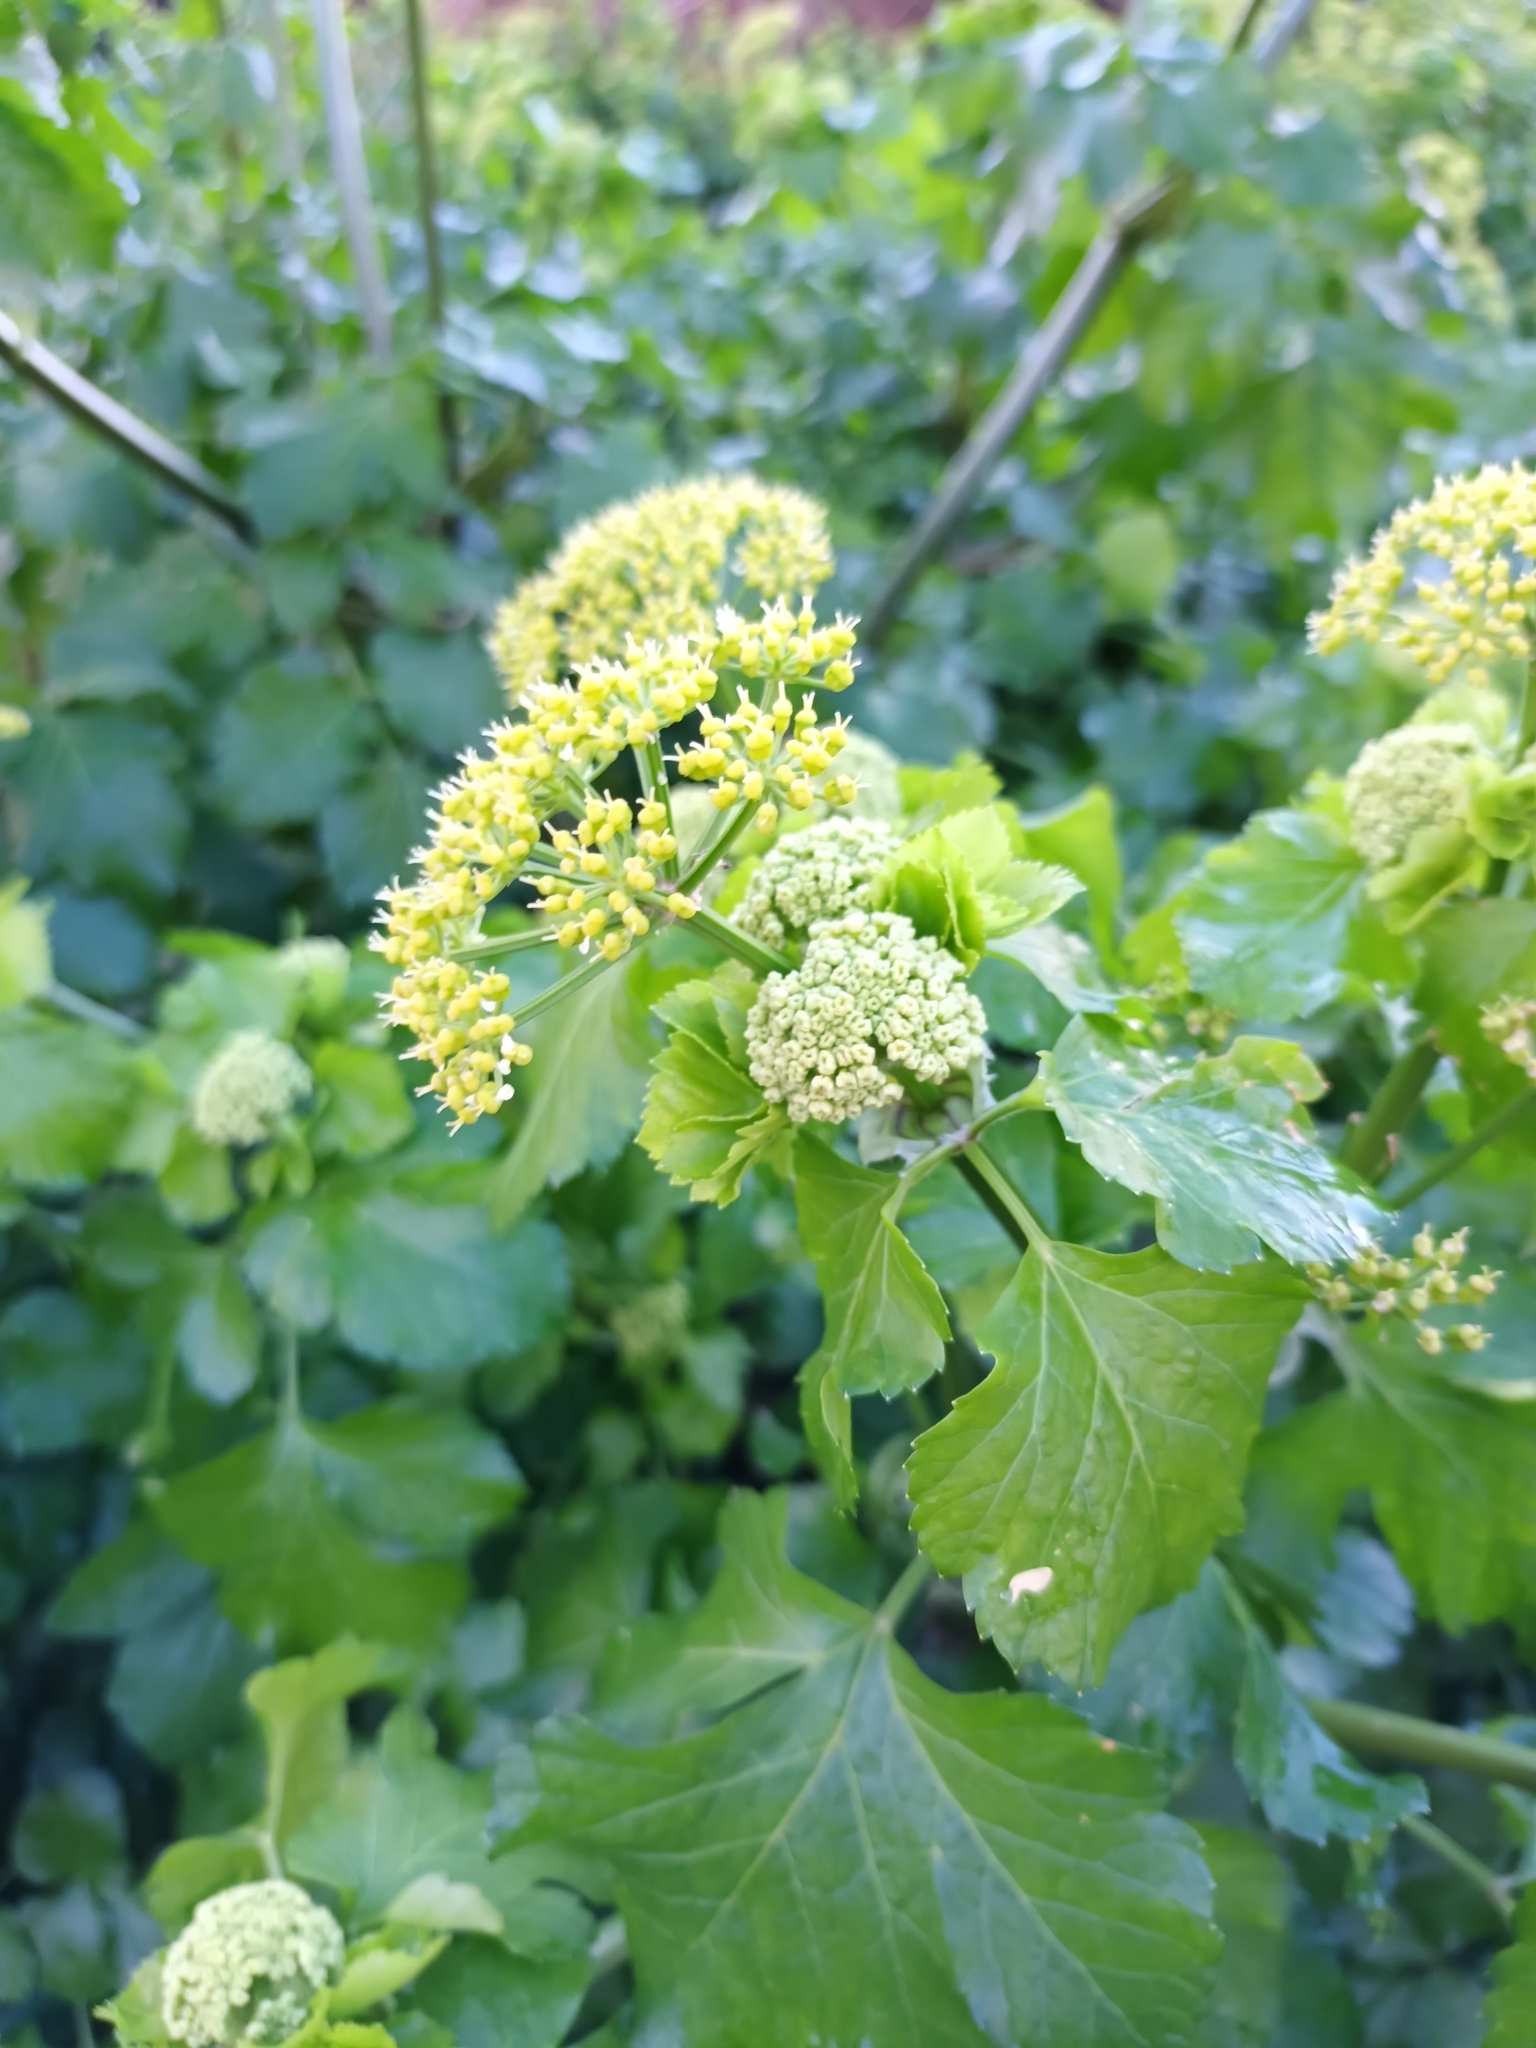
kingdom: Plantae
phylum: Tracheophyta
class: Magnoliopsida
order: Apiales
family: Apiaceae
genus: Smyrnium
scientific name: Smyrnium olusatrum
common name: Alexanders
